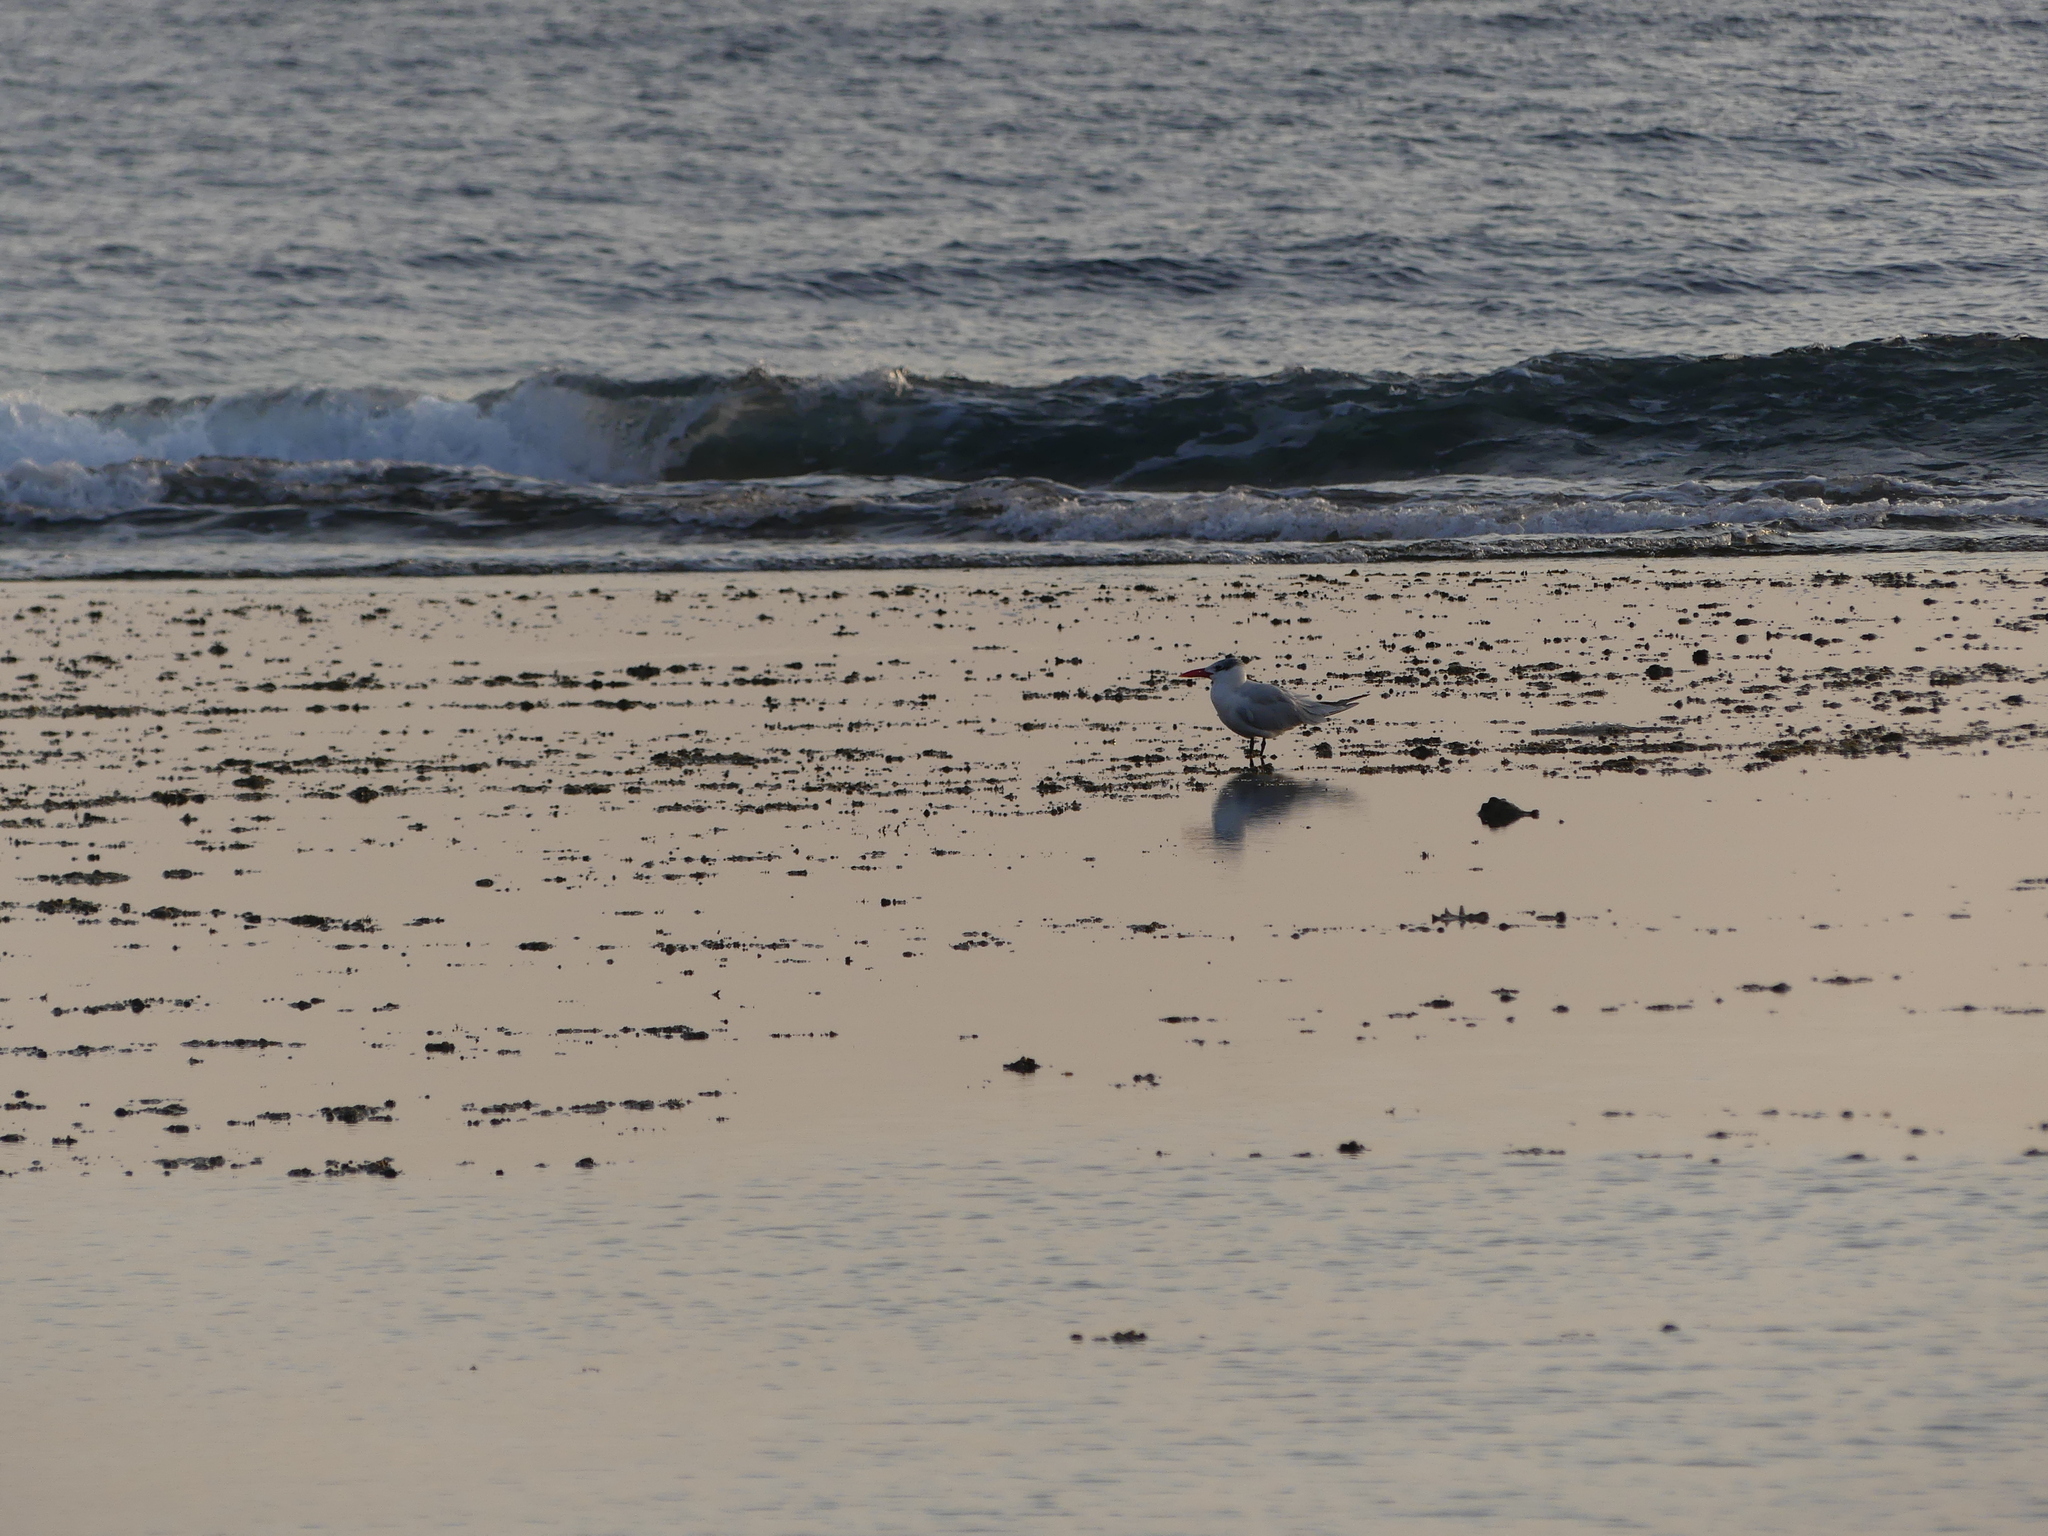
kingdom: Animalia
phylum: Chordata
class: Aves
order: Charadriiformes
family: Laridae
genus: Hydroprogne
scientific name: Hydroprogne caspia
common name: Caspian tern
